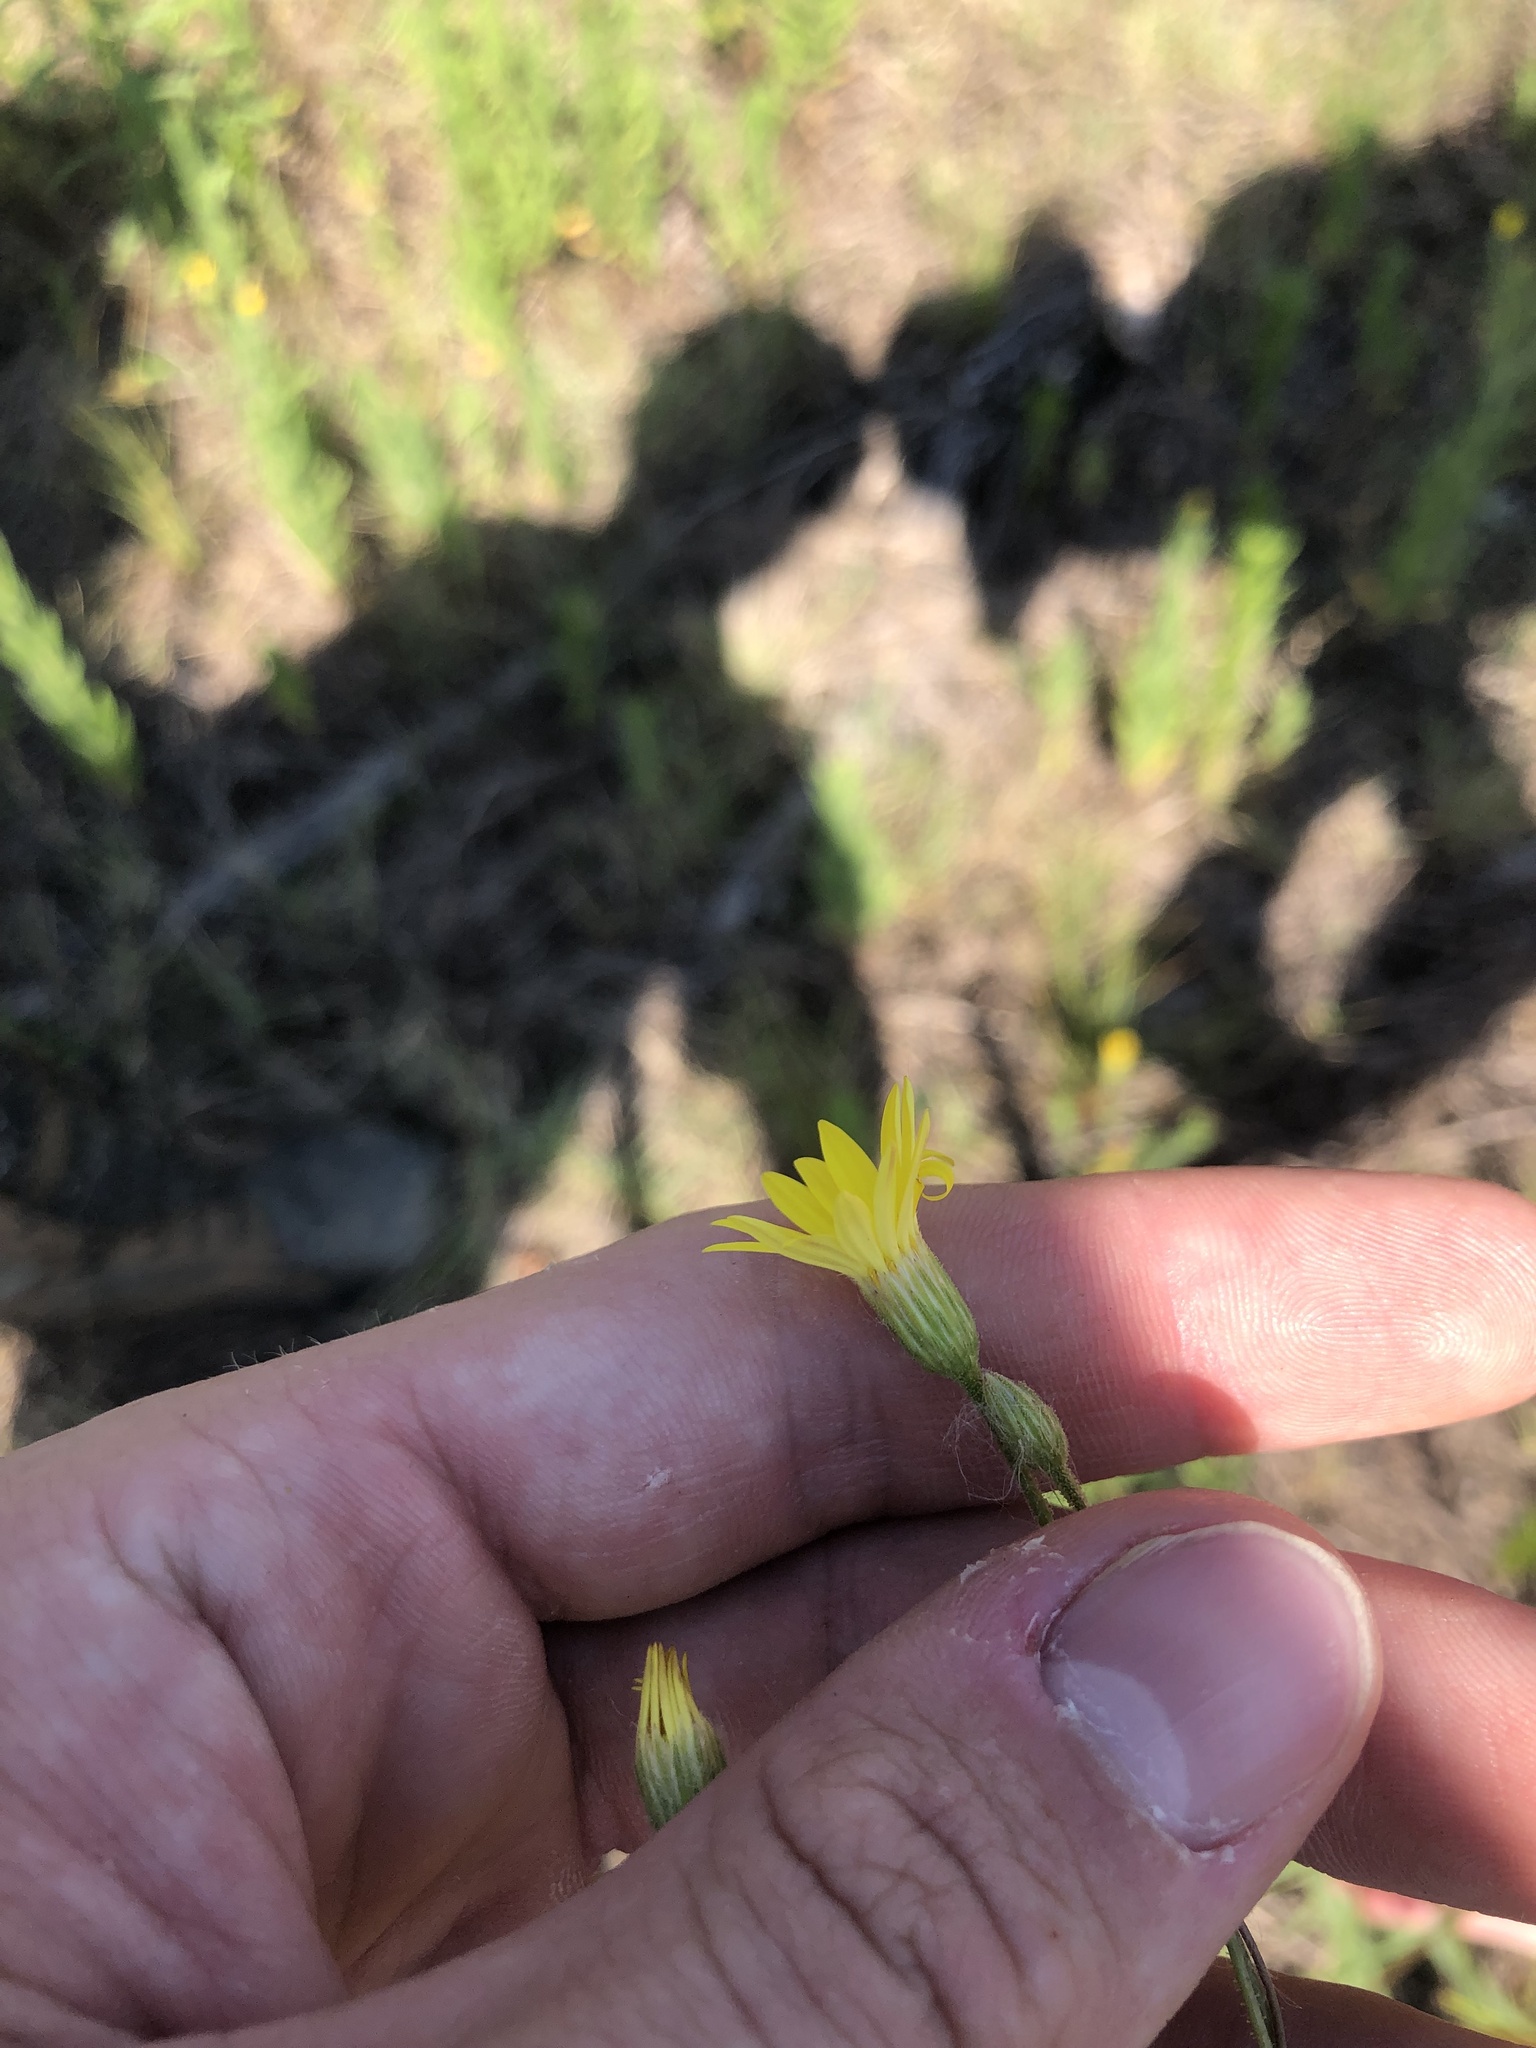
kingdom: Plantae
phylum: Tracheophyta
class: Magnoliopsida
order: Asterales
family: Asteraceae
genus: Croptilon
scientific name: Croptilon hookerianum
